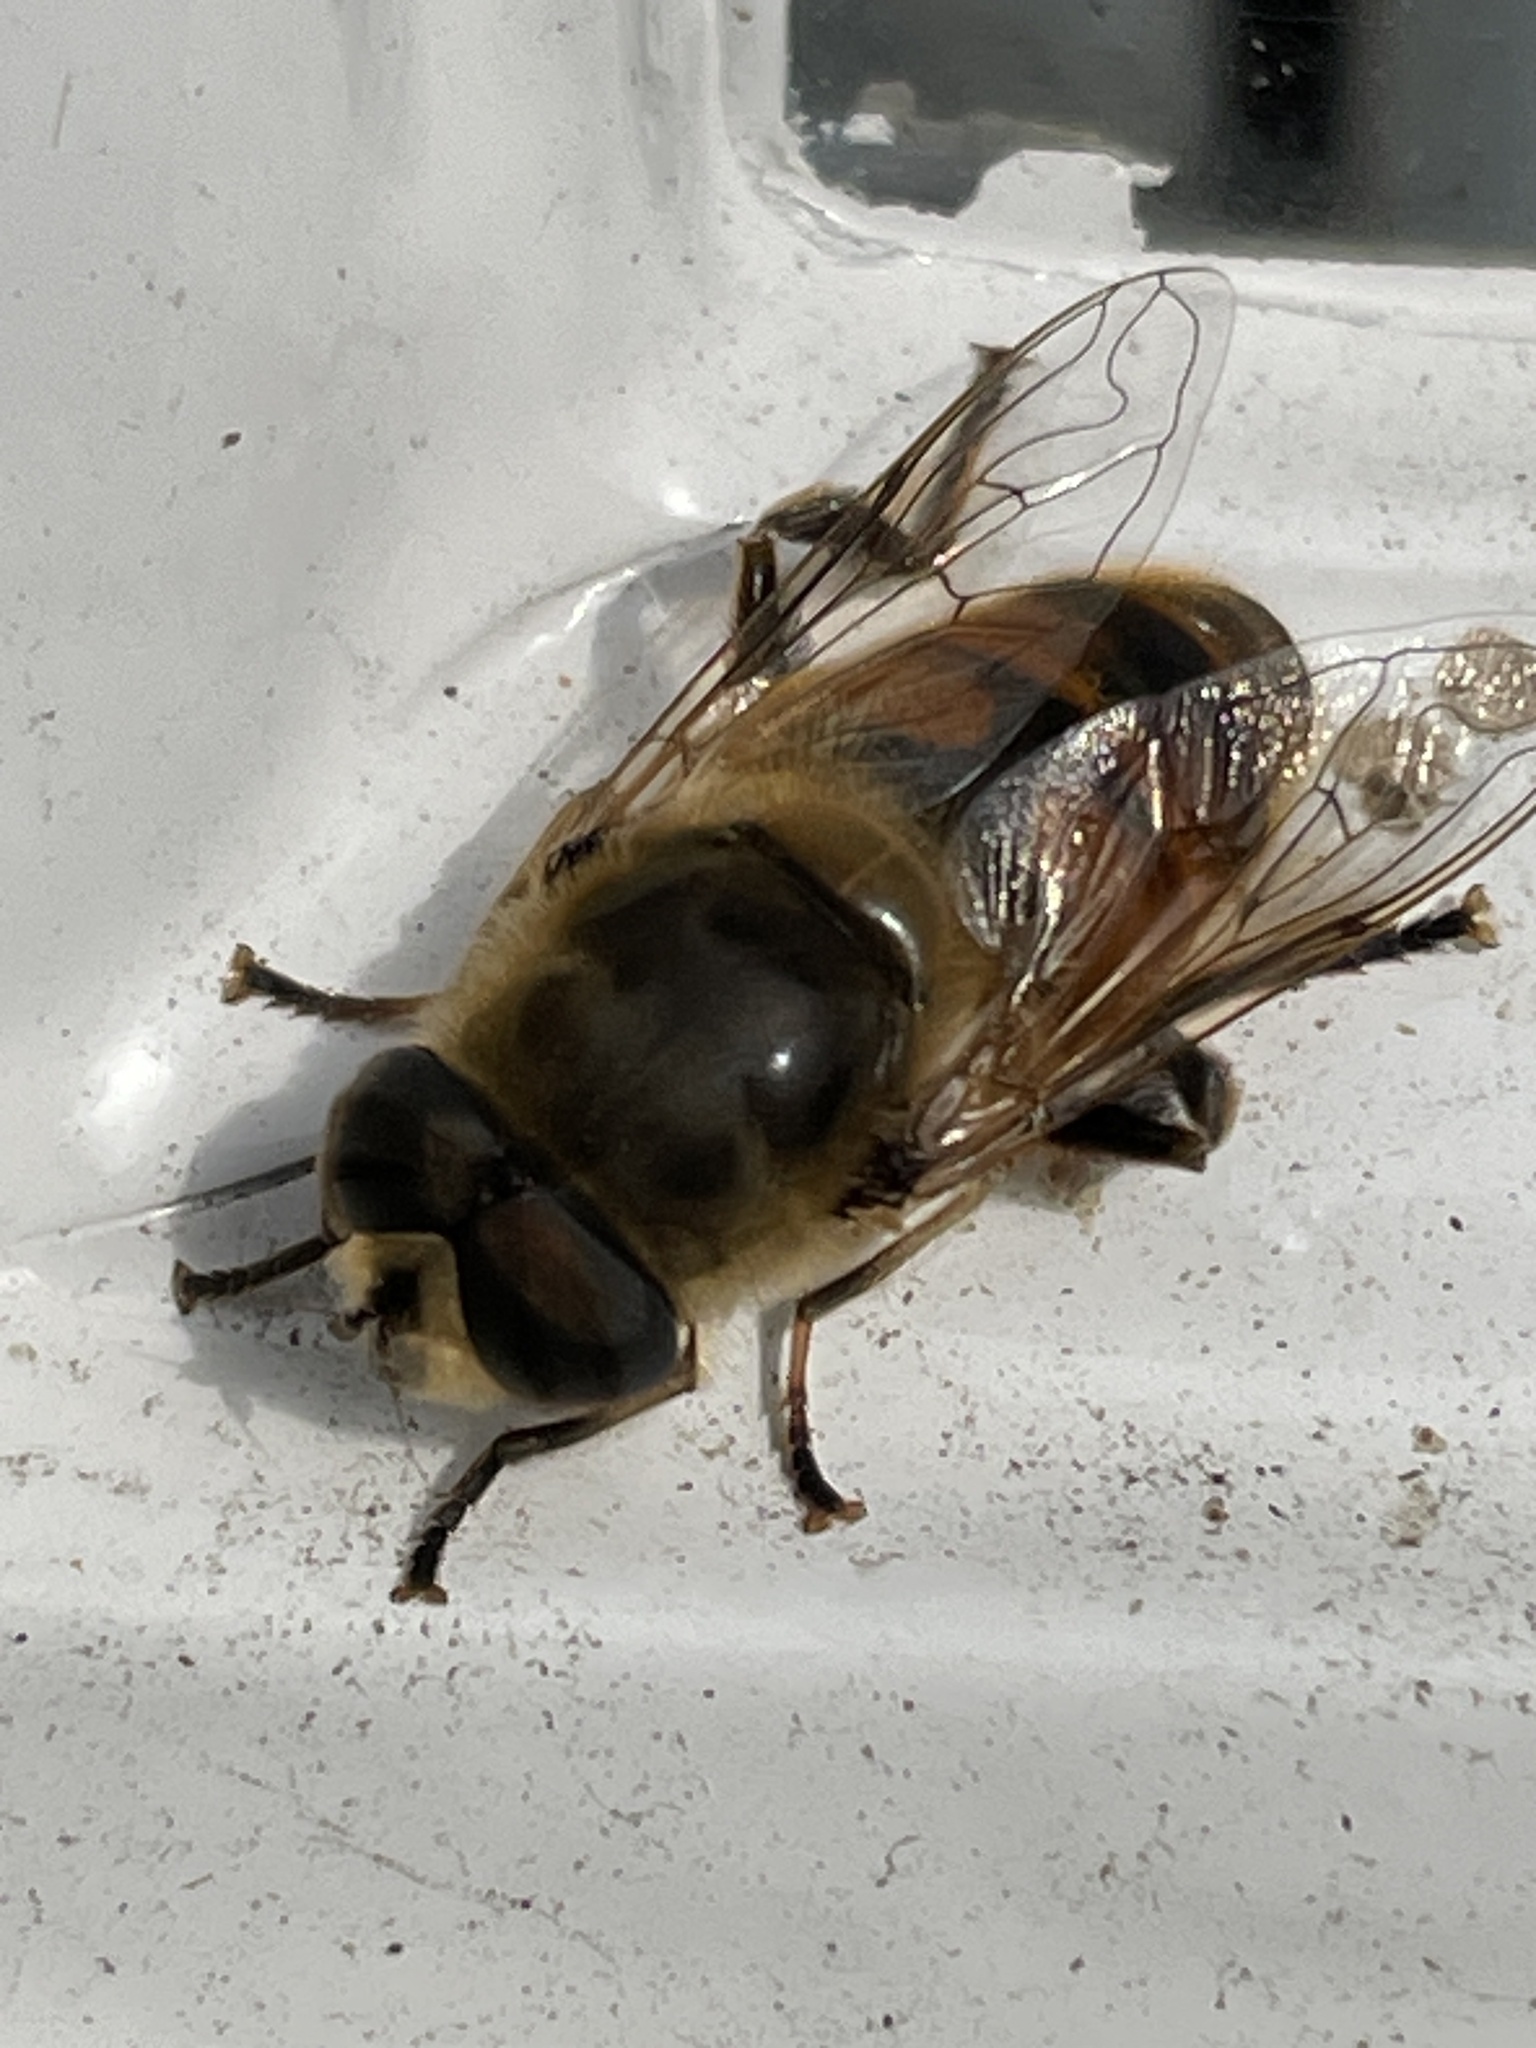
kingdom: Animalia
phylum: Arthropoda
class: Insecta
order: Diptera
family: Syrphidae
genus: Eristalis
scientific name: Eristalis tenax
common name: Drone fly
